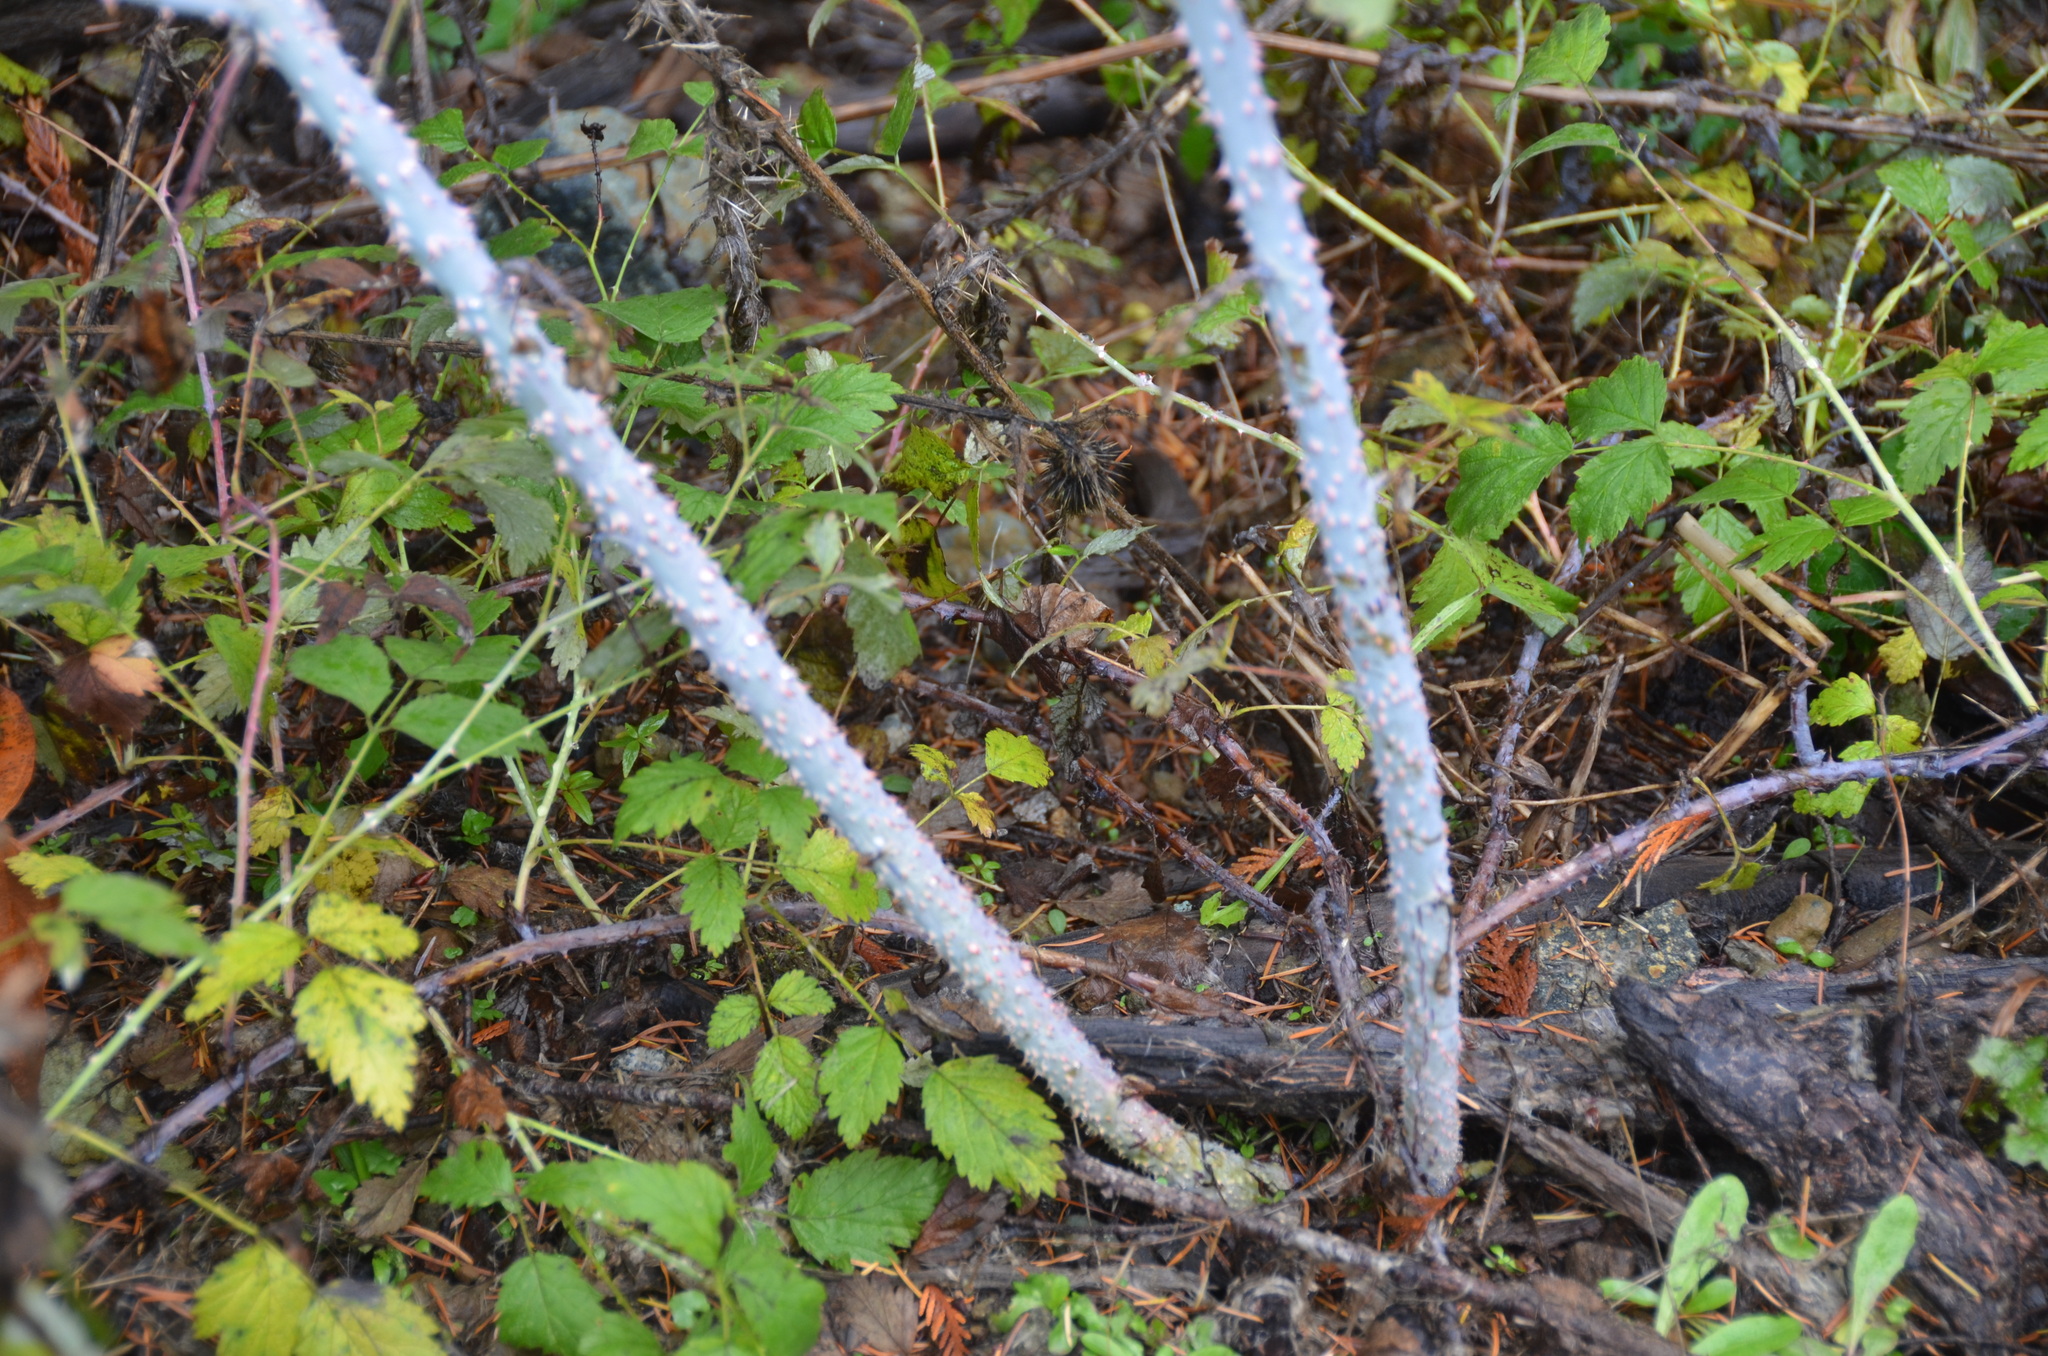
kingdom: Plantae
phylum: Tracheophyta
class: Magnoliopsida
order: Rosales
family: Rosaceae
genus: Rubus
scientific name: Rubus leucodermis
